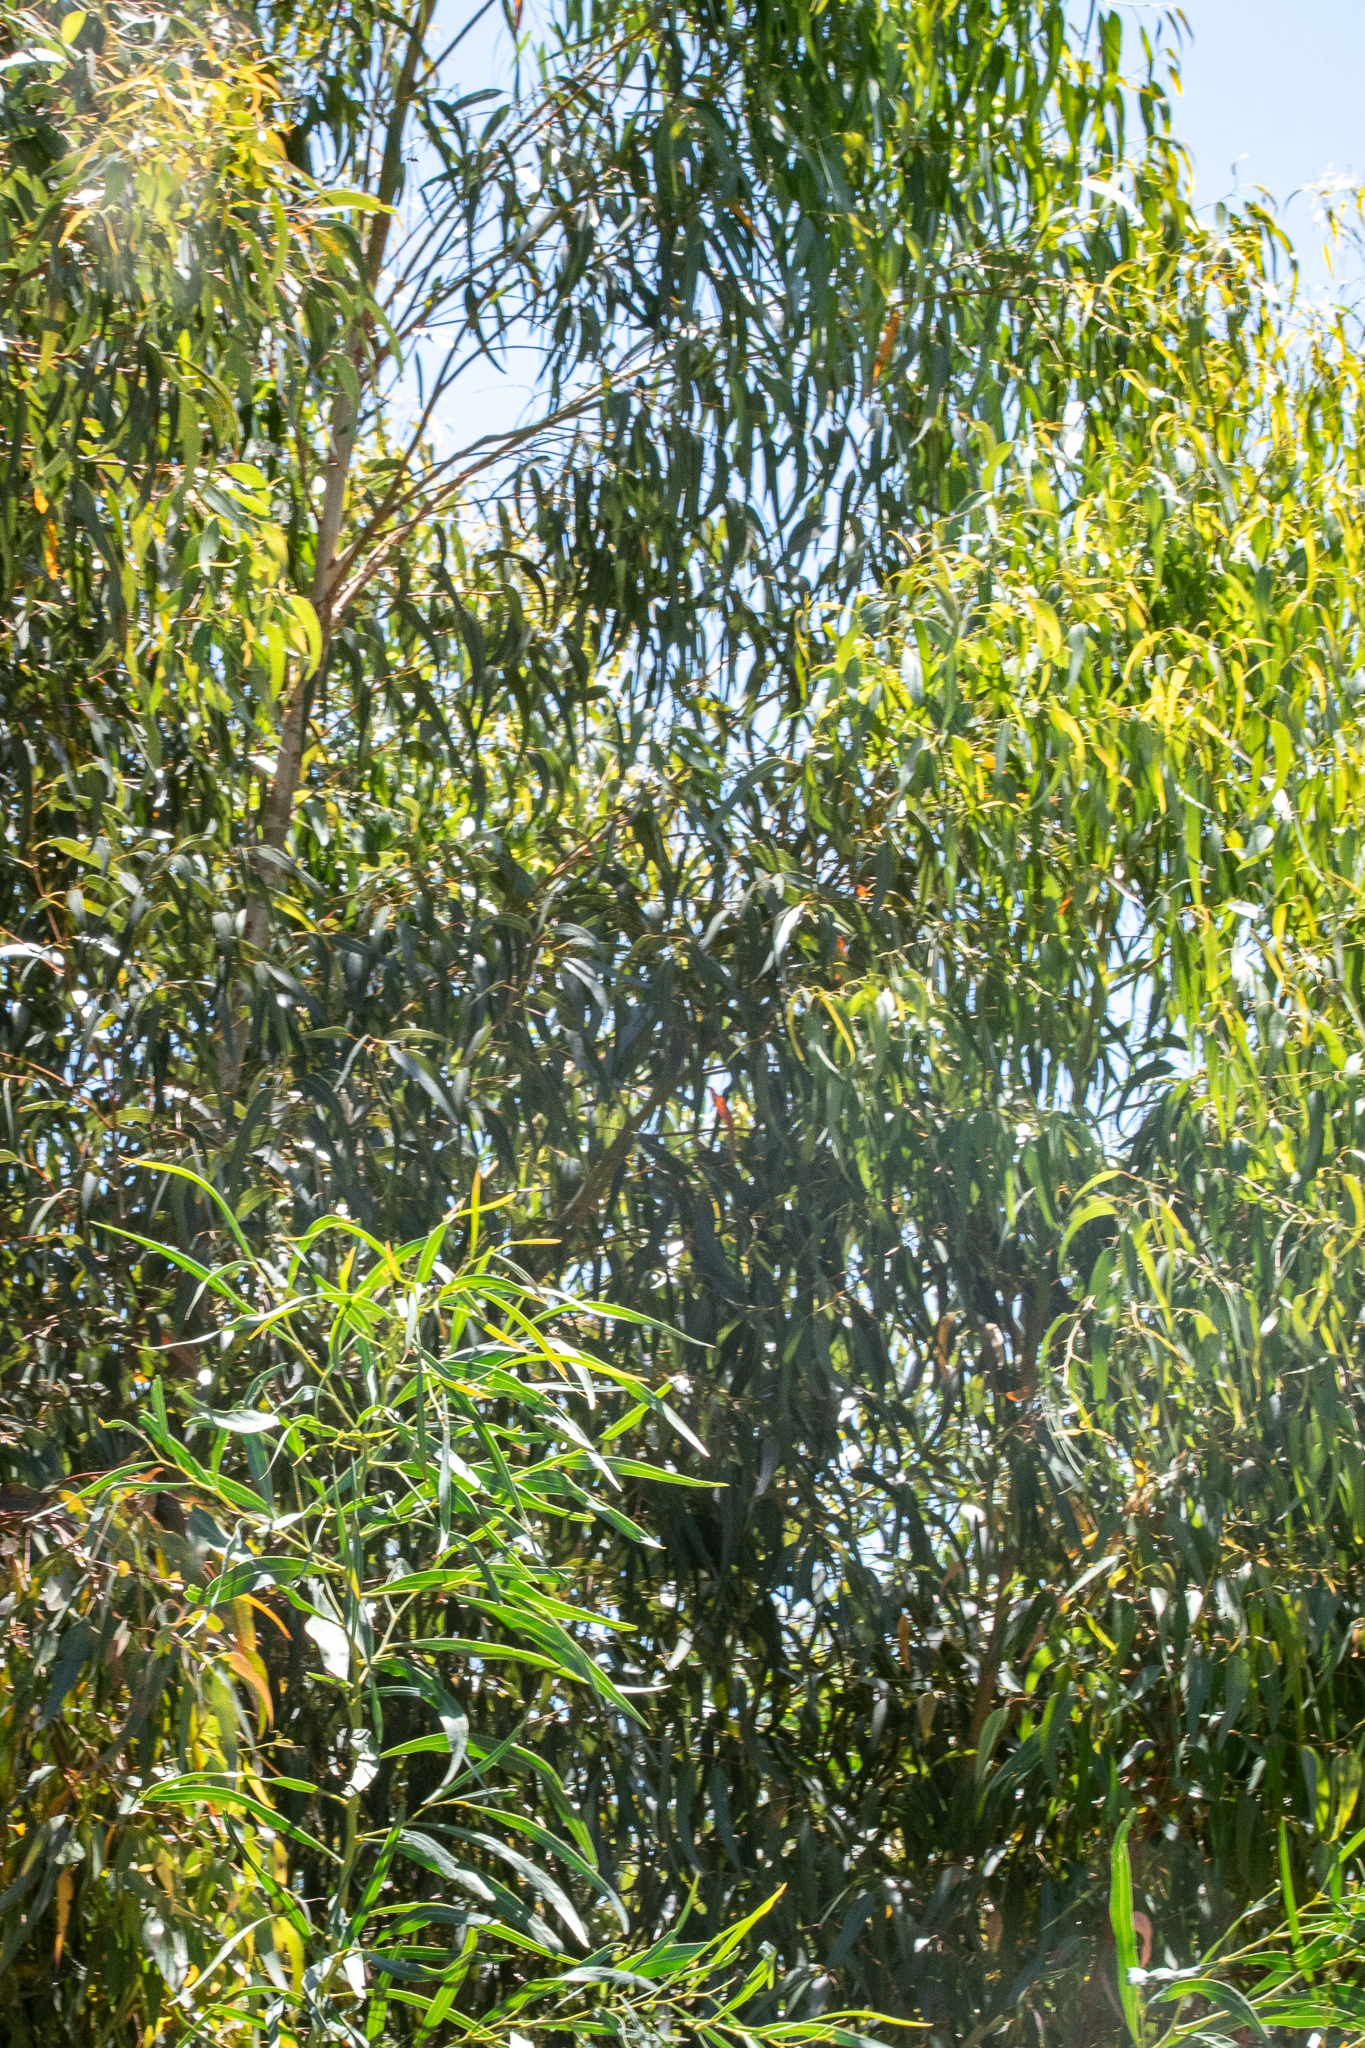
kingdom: Plantae
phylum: Tracheophyta
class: Magnoliopsida
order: Myrtales
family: Myrtaceae
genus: Eucalyptus
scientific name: Eucalyptus globulus
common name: Southern blue-gum
